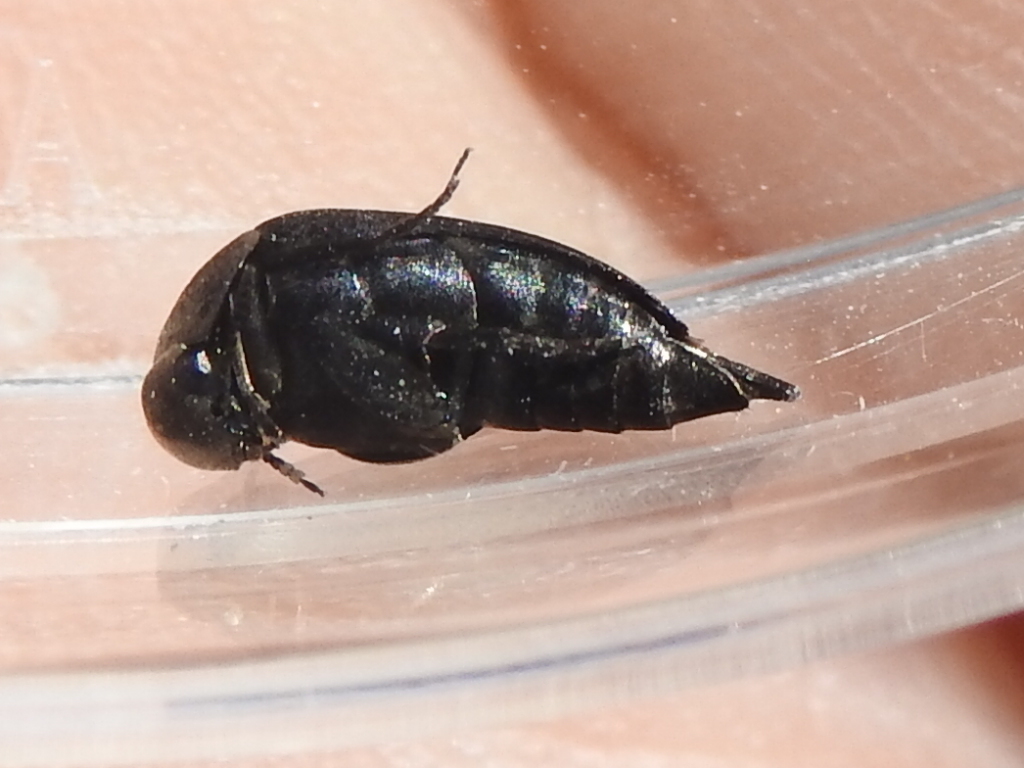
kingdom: Animalia
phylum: Arthropoda
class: Insecta
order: Coleoptera
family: Mordellidae
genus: Mordella
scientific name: Mordella marginata
